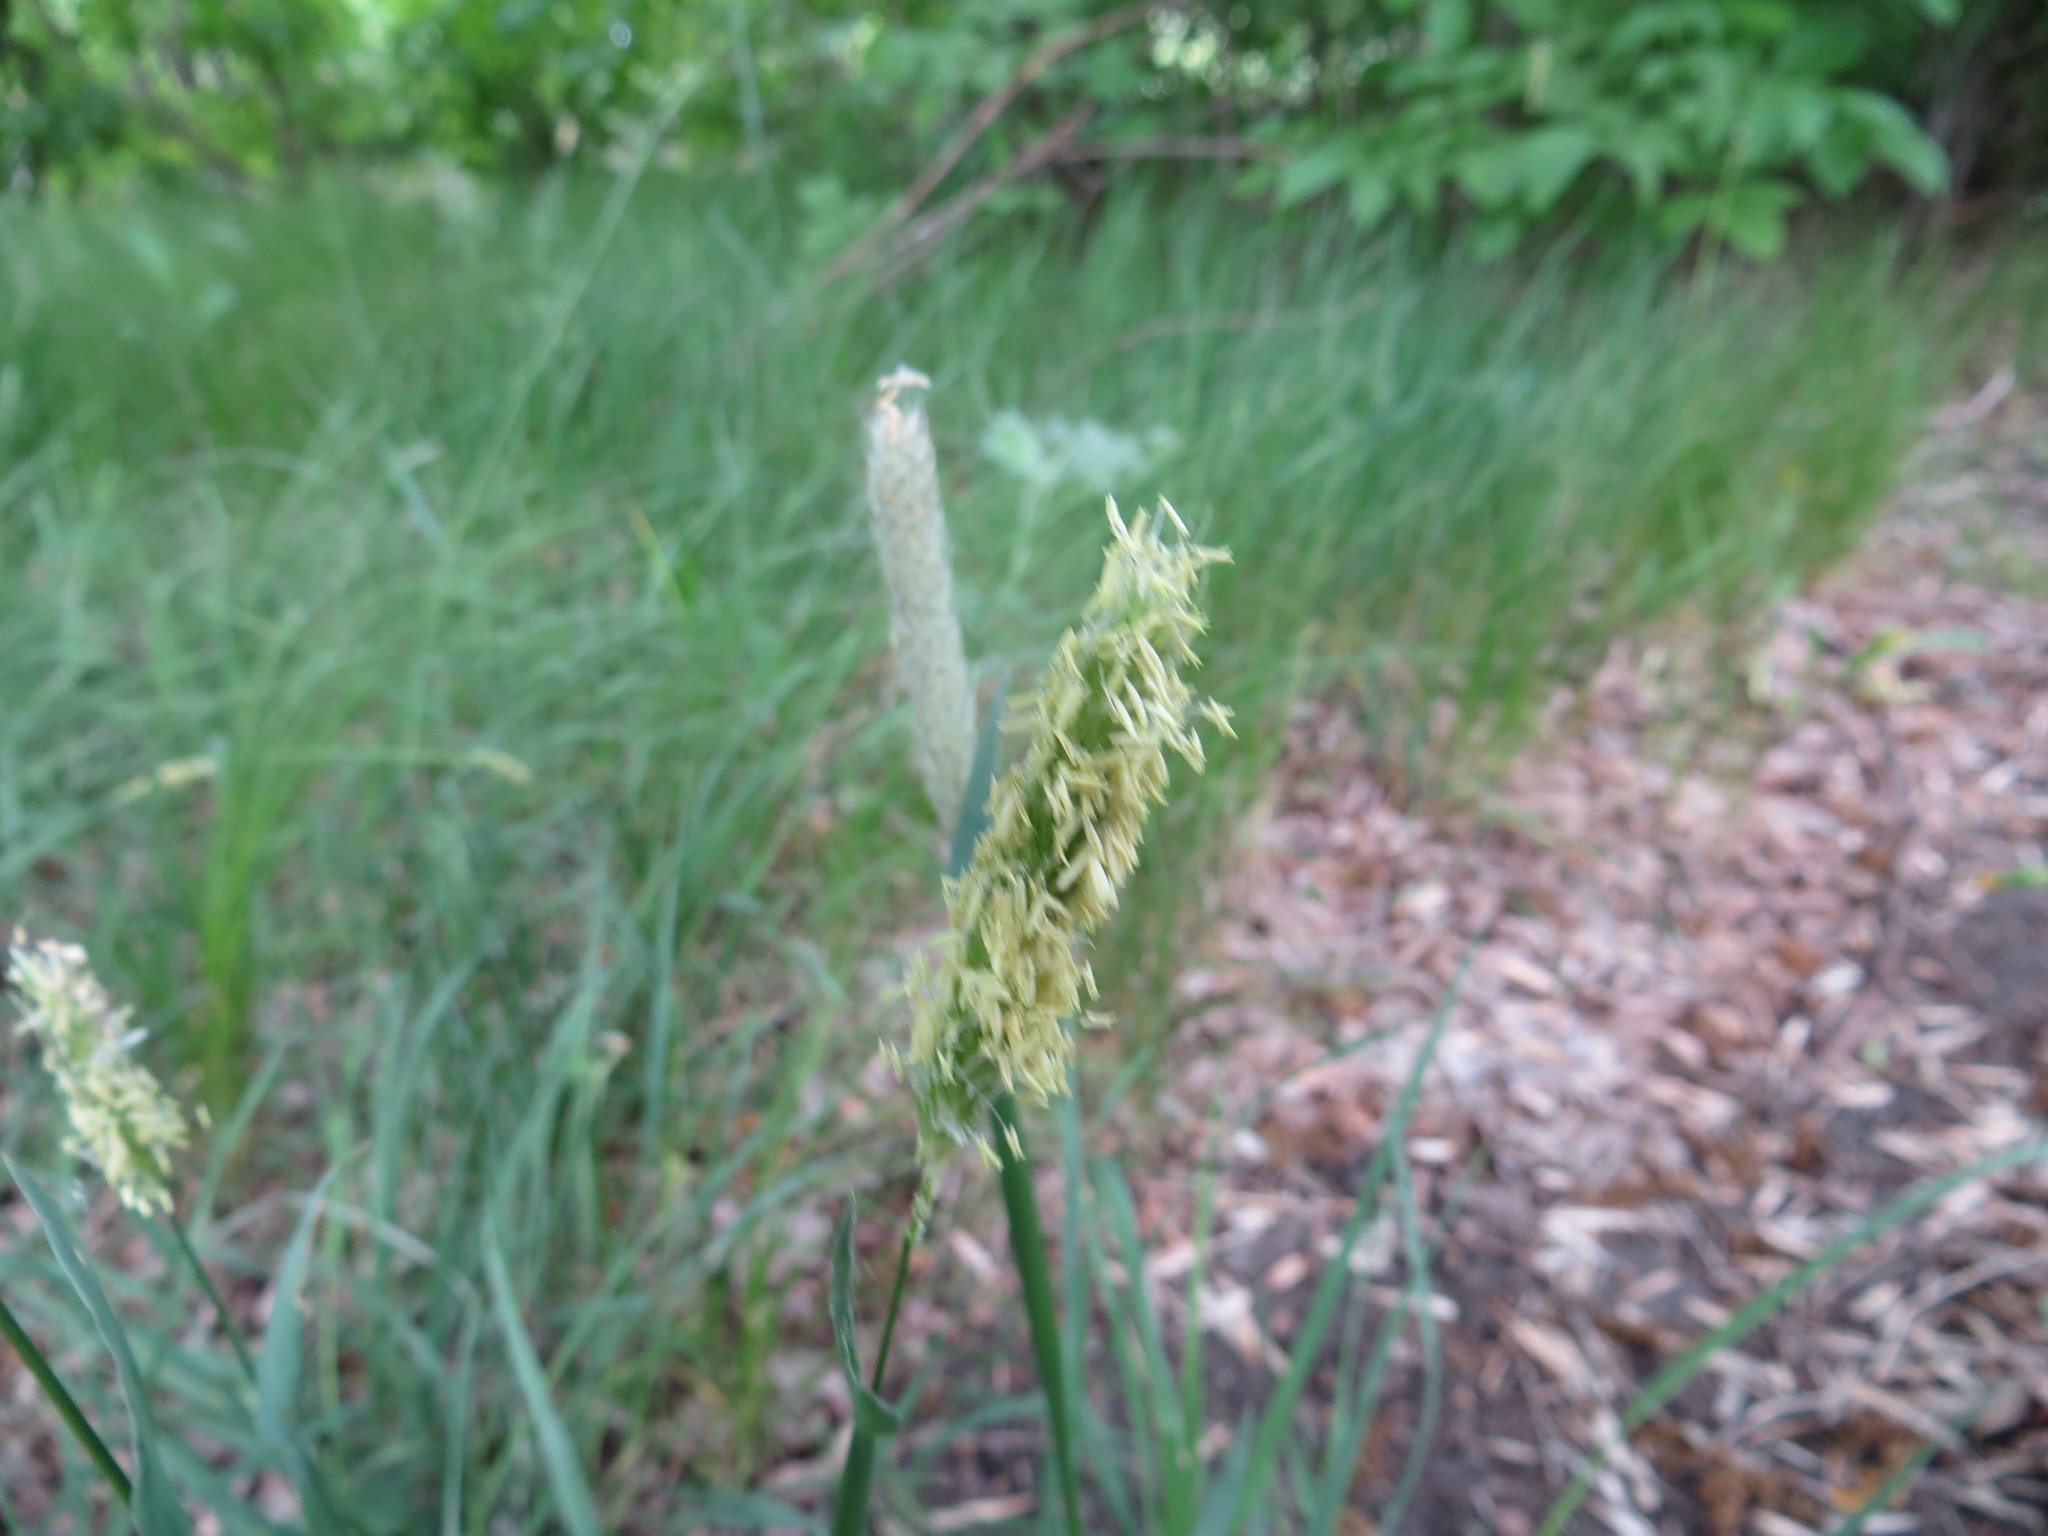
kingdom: Plantae
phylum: Tracheophyta
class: Liliopsida
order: Poales
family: Poaceae
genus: Alopecurus
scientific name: Alopecurus pratensis
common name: Meadow foxtail
